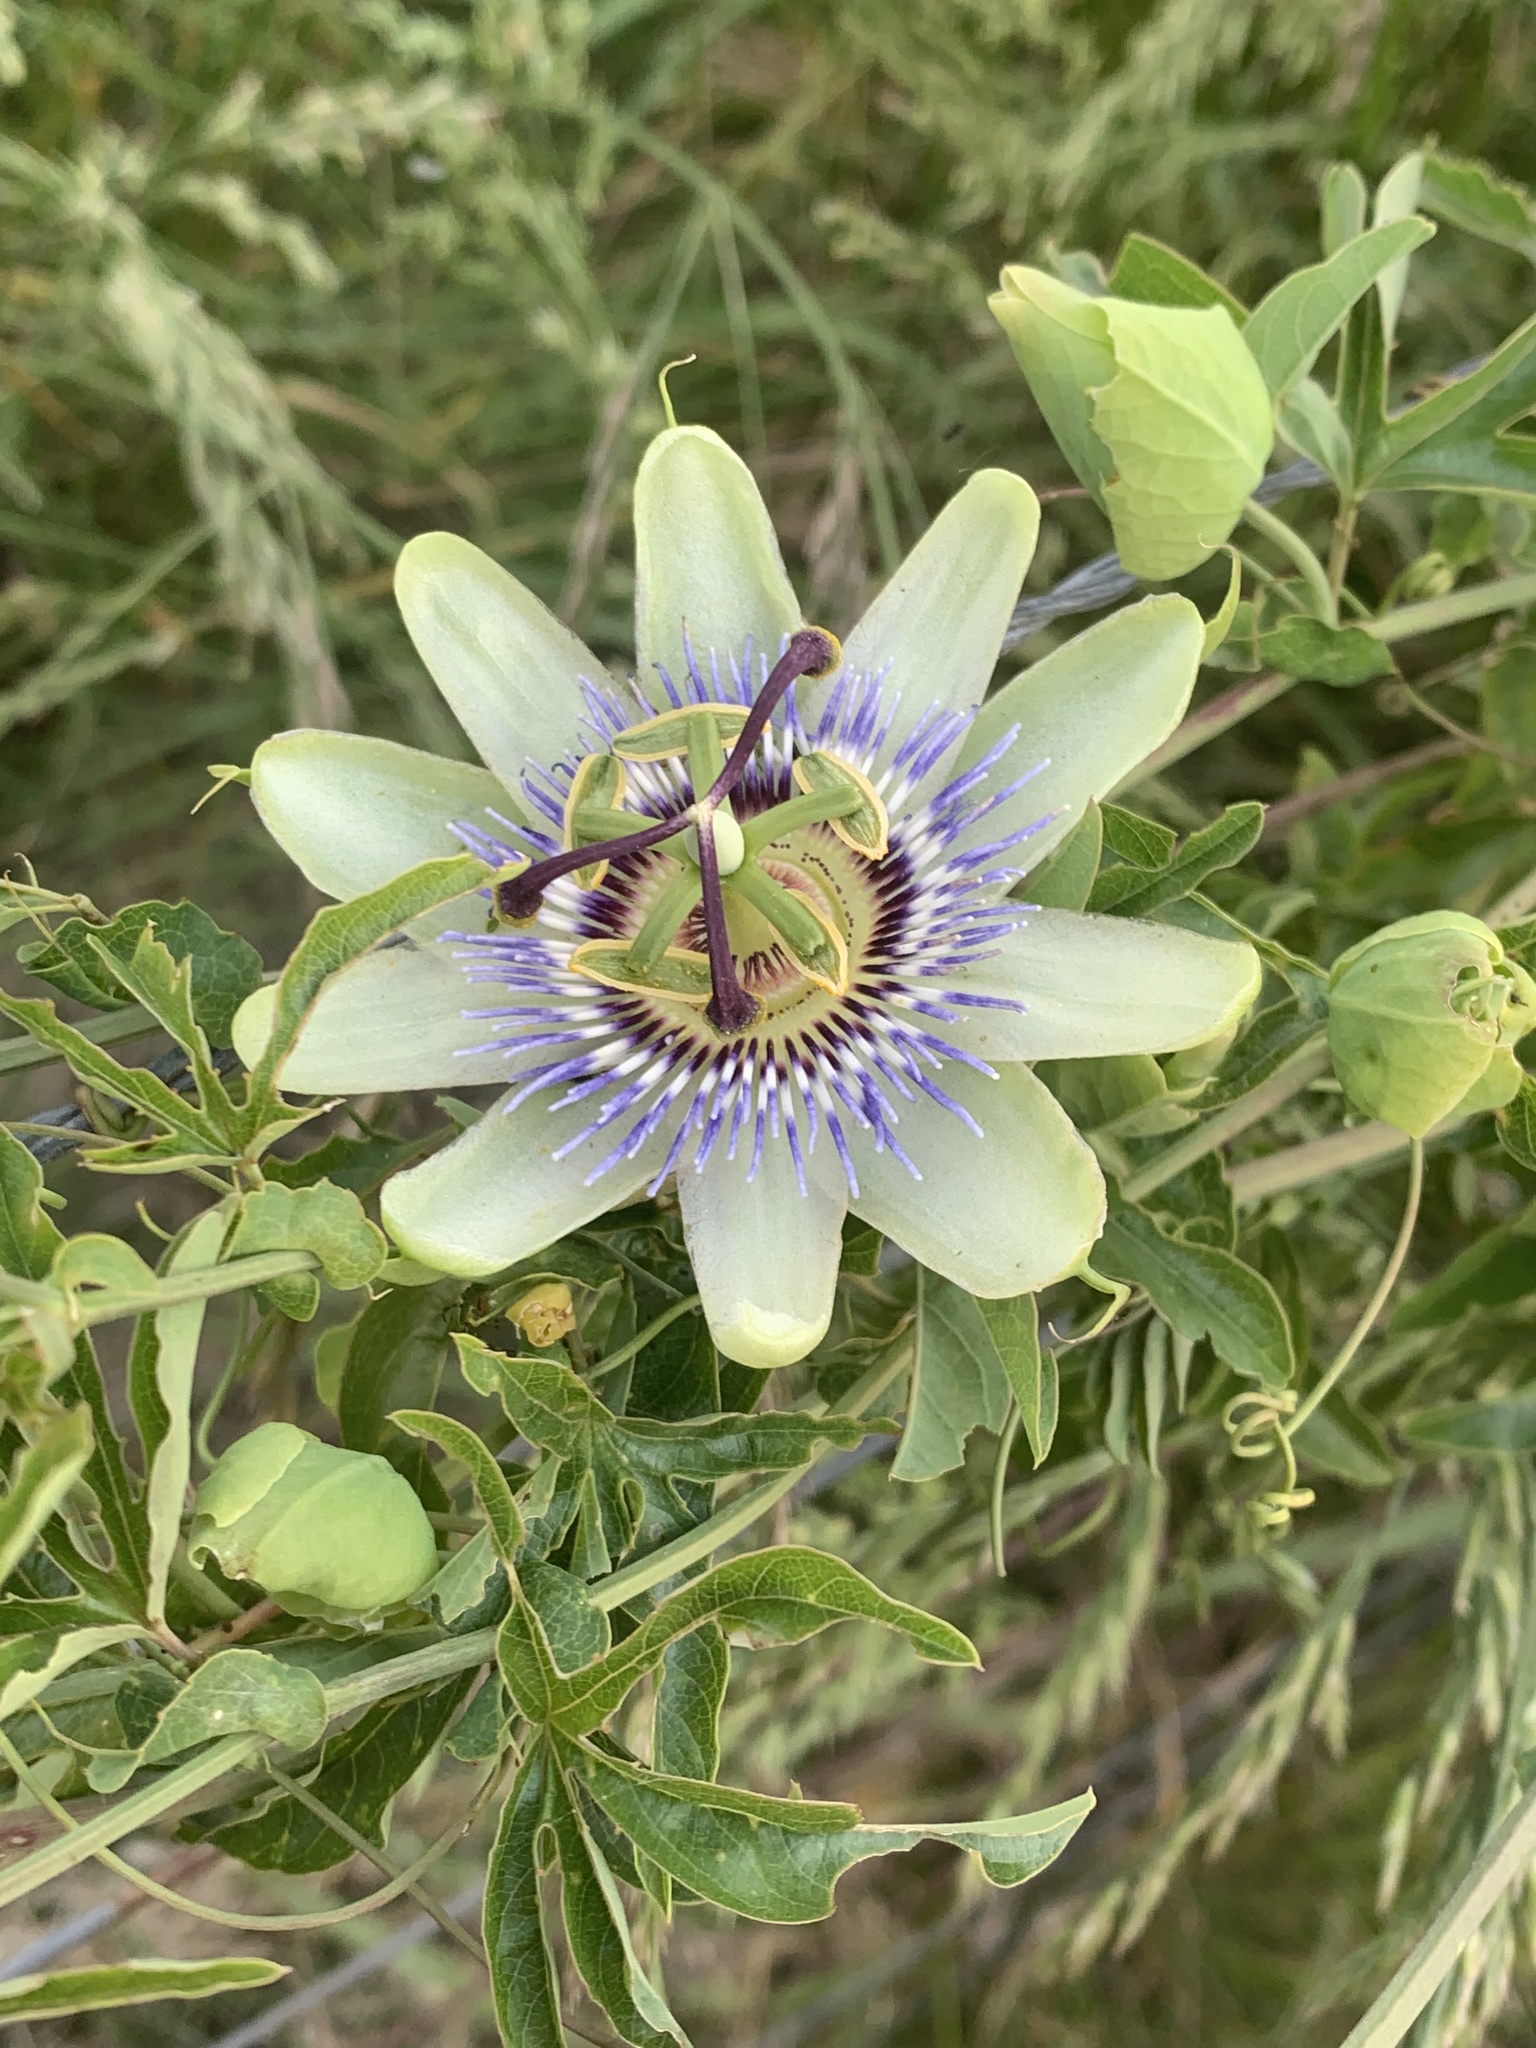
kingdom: Plantae
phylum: Tracheophyta
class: Magnoliopsida
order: Malpighiales
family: Passifloraceae
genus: Passiflora
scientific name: Passiflora caerulea
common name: Blue passionflower
